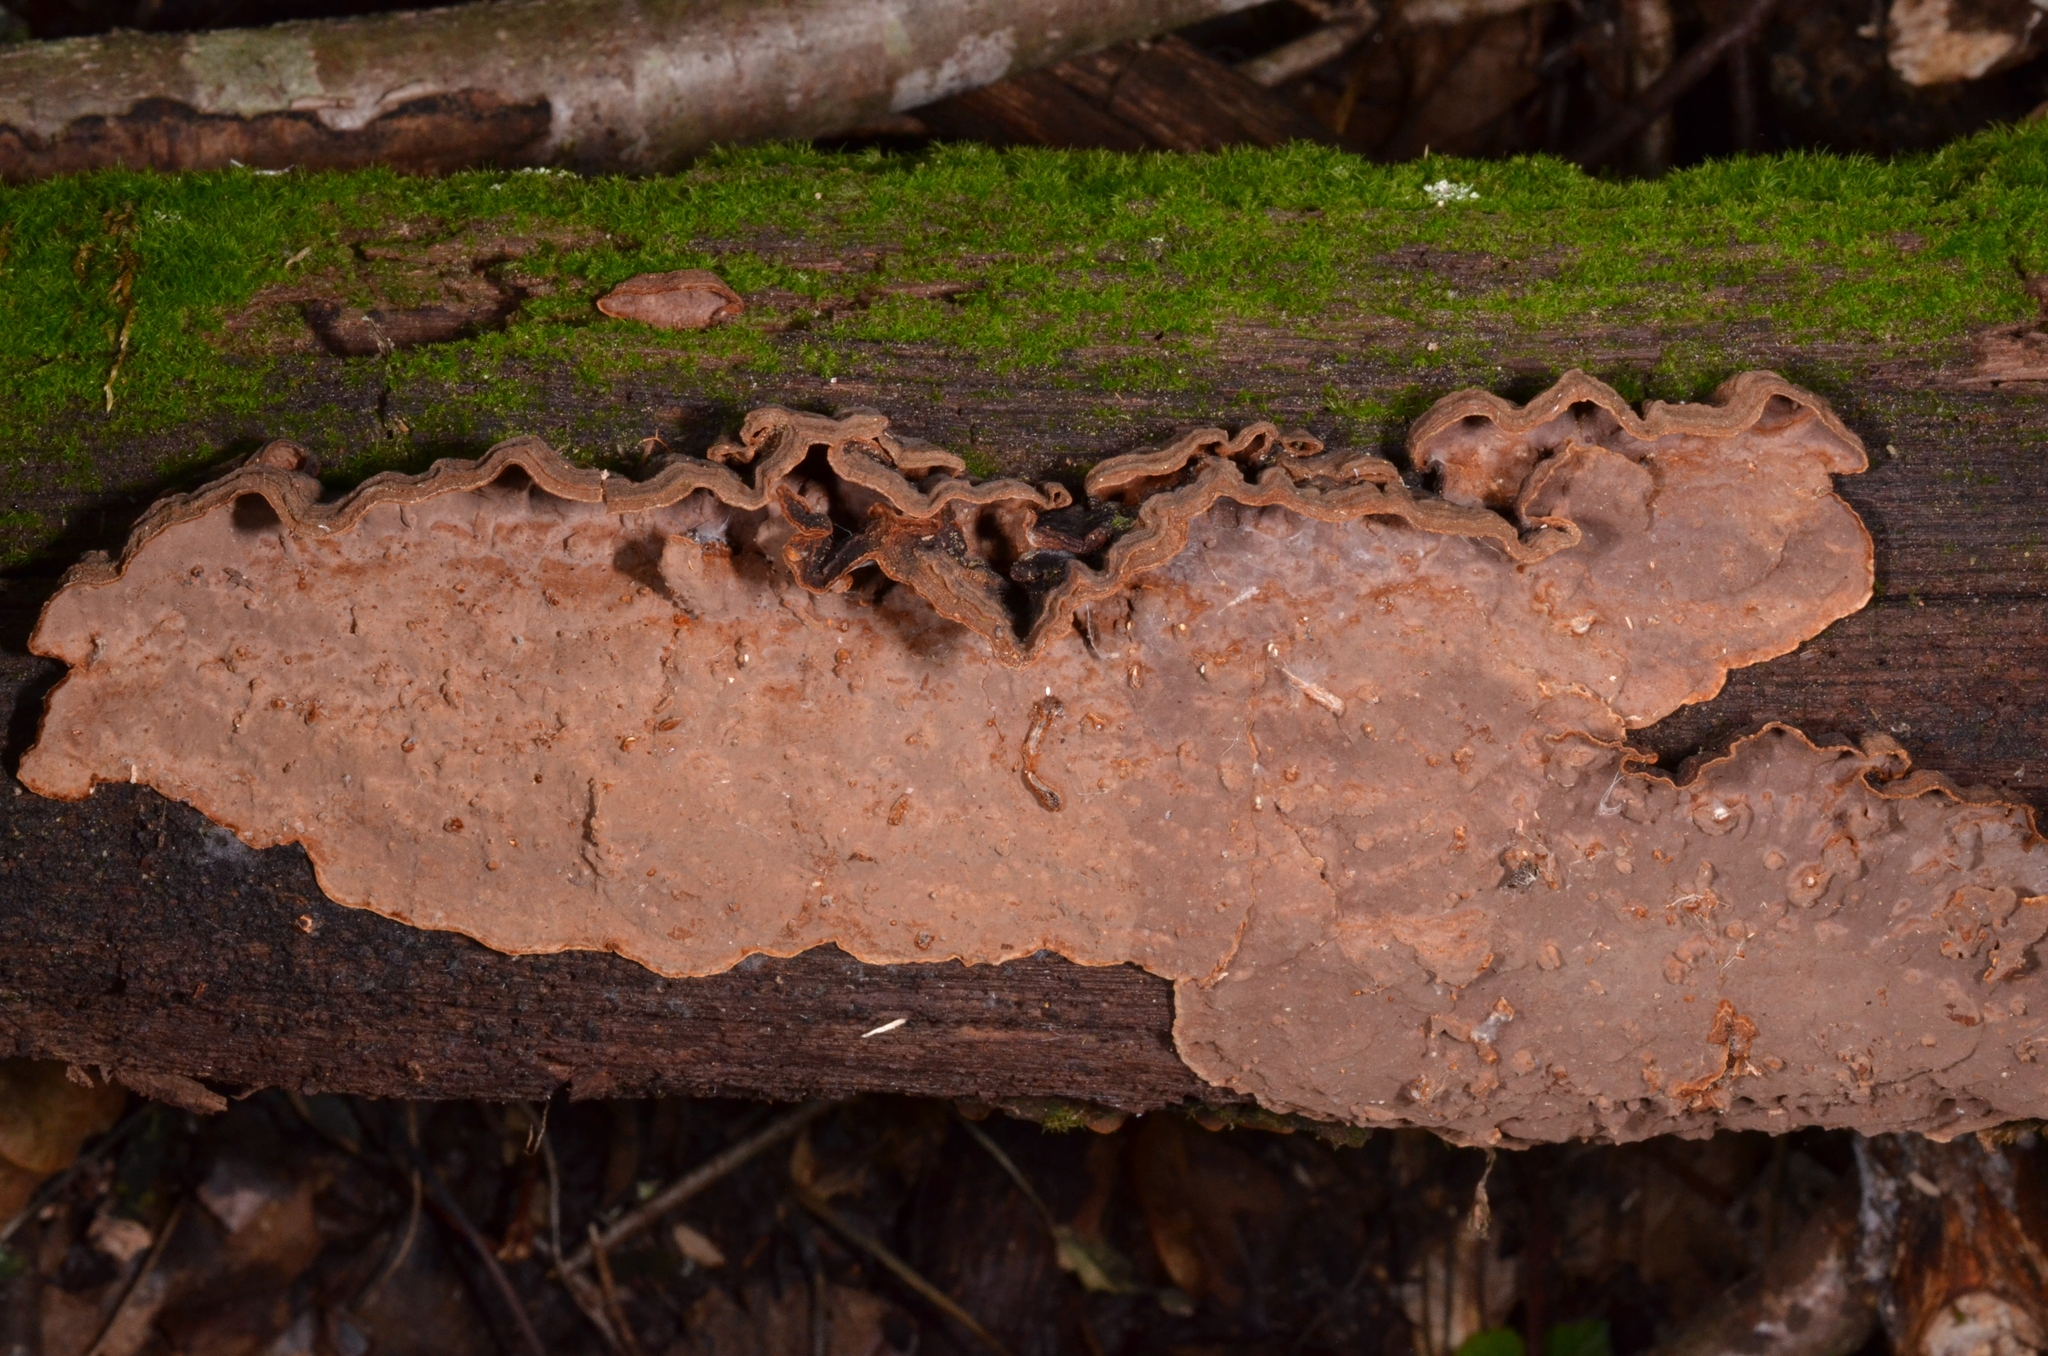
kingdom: Fungi
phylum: Basidiomycota
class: Agaricomycetes
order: Hymenochaetales
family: Hymenochaetaceae
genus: Hymenochaete
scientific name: Hymenochaete rubiginosa
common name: Oak curtain crust
